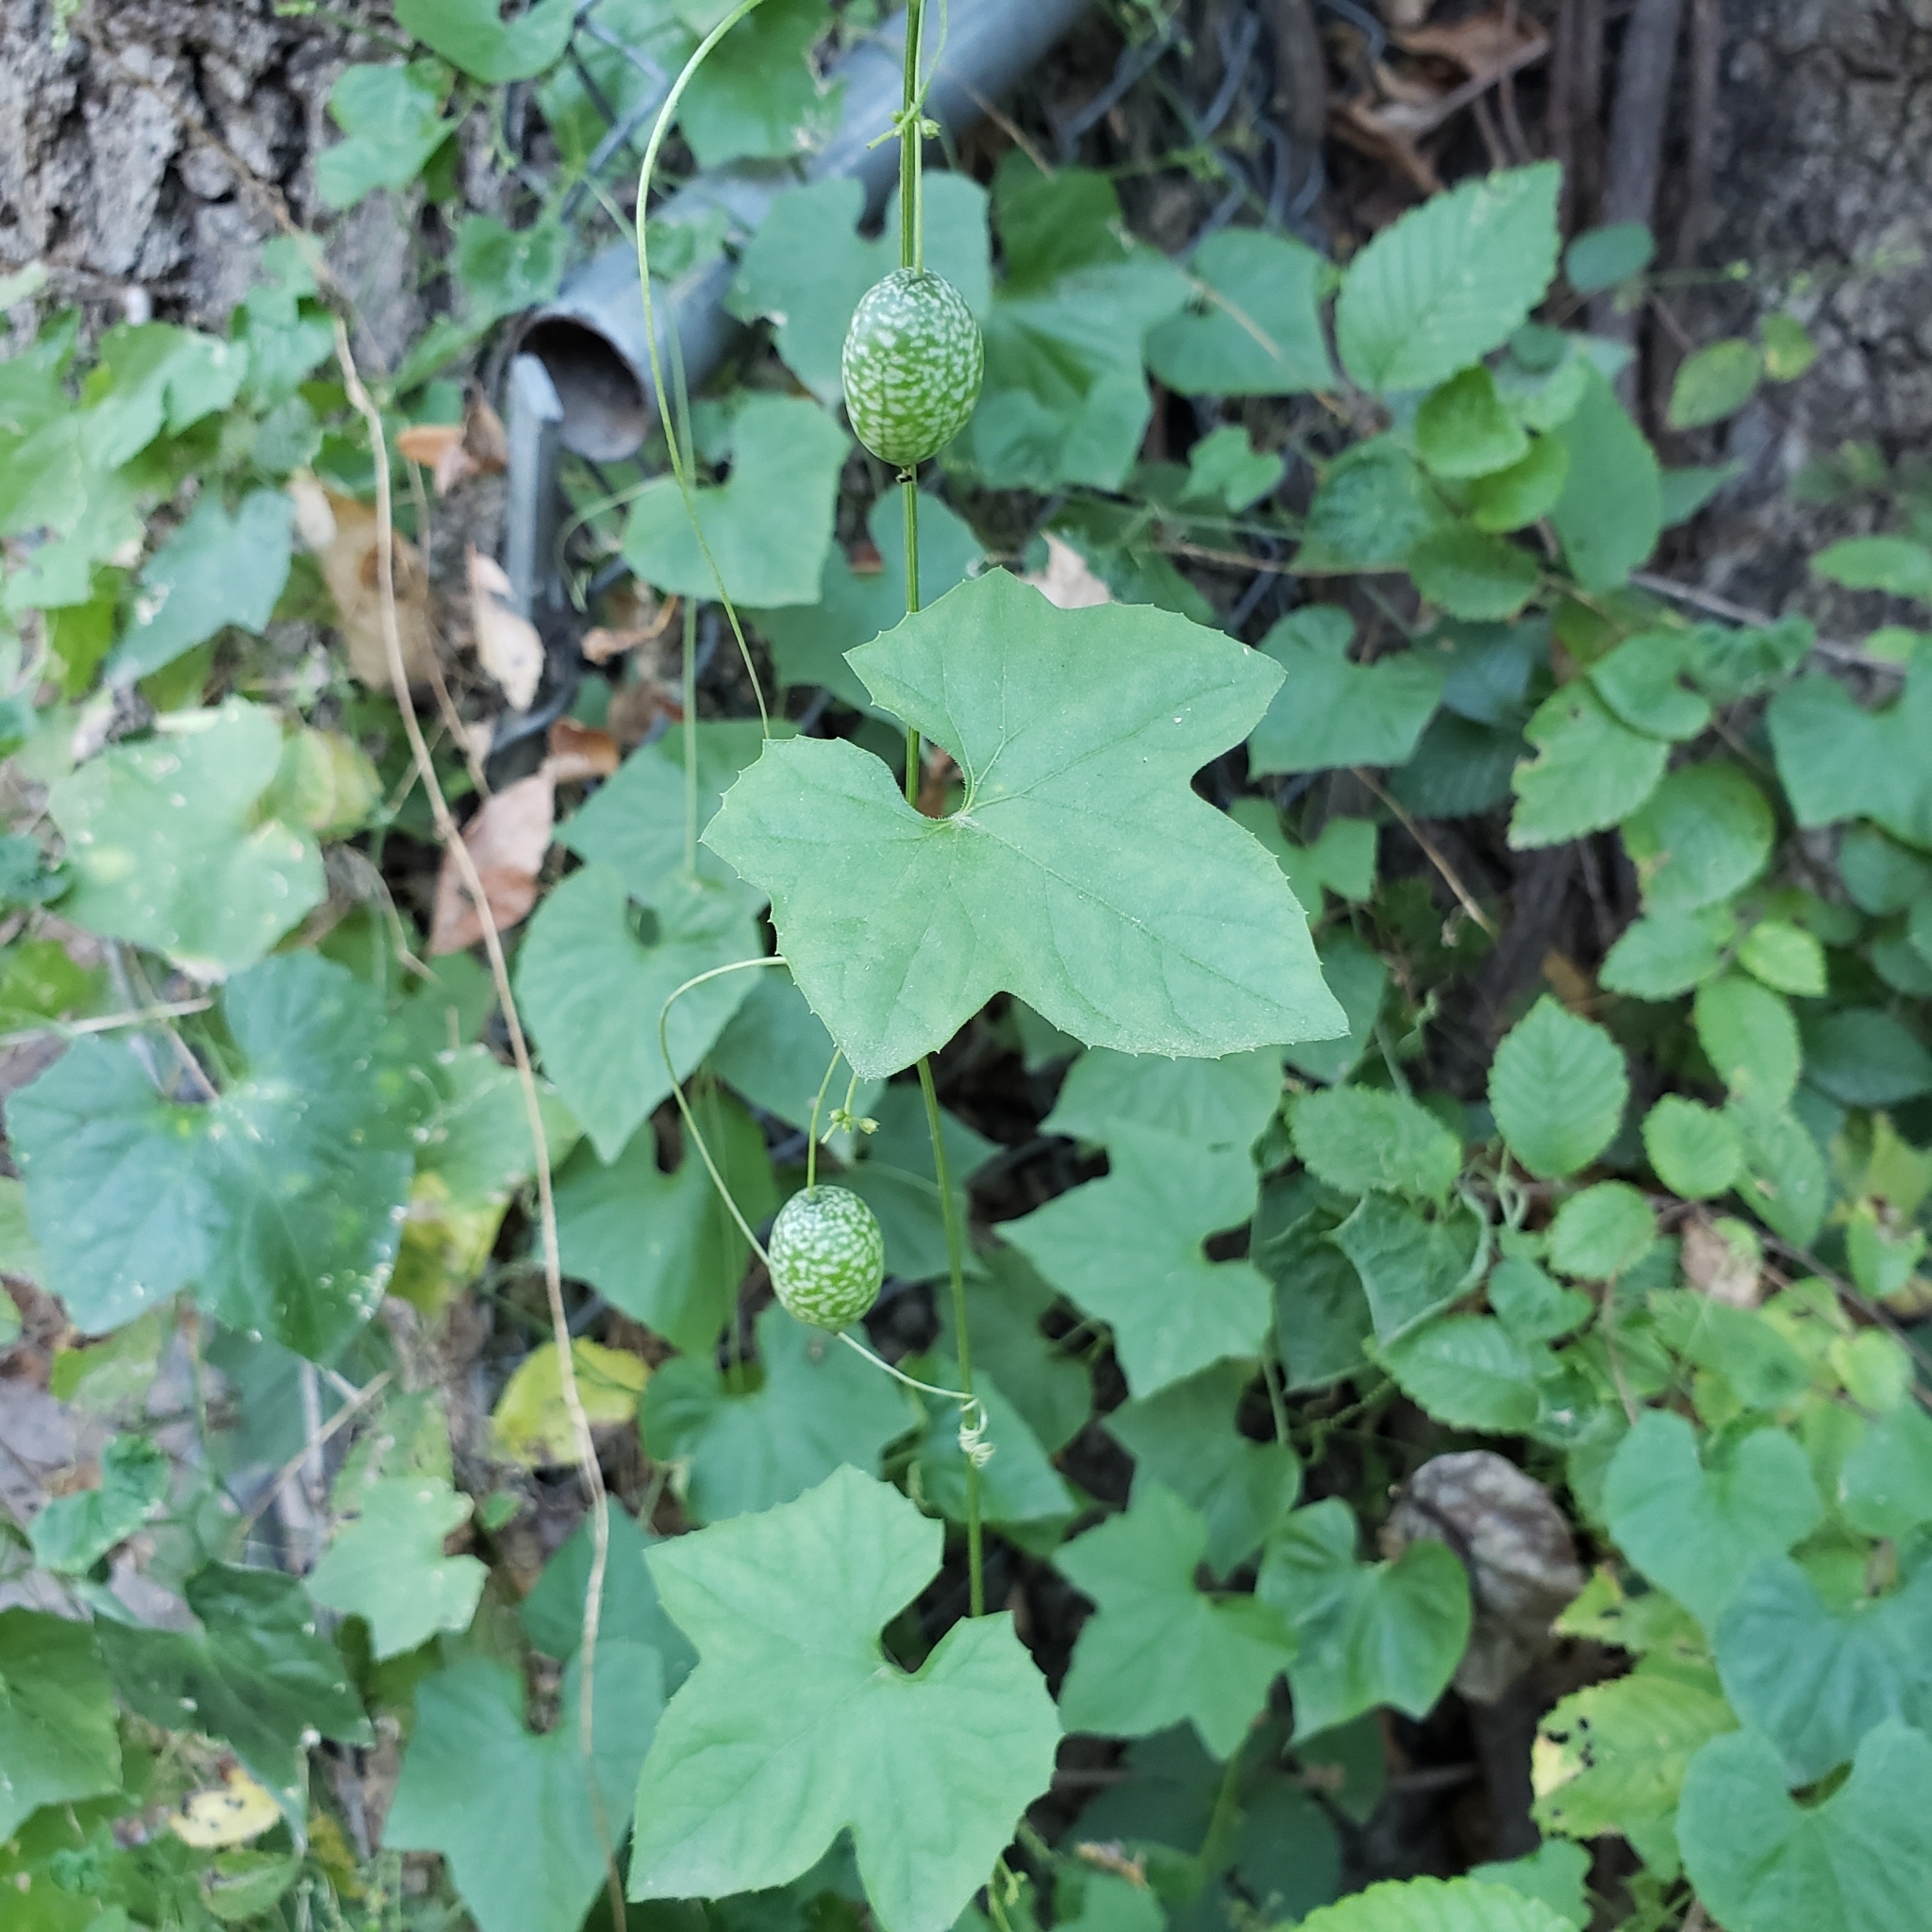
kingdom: Plantae
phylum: Tracheophyta
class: Magnoliopsida
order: Cucurbitales
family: Cucurbitaceae
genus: Melothria
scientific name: Melothria pendula
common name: Creeping-cucumber
